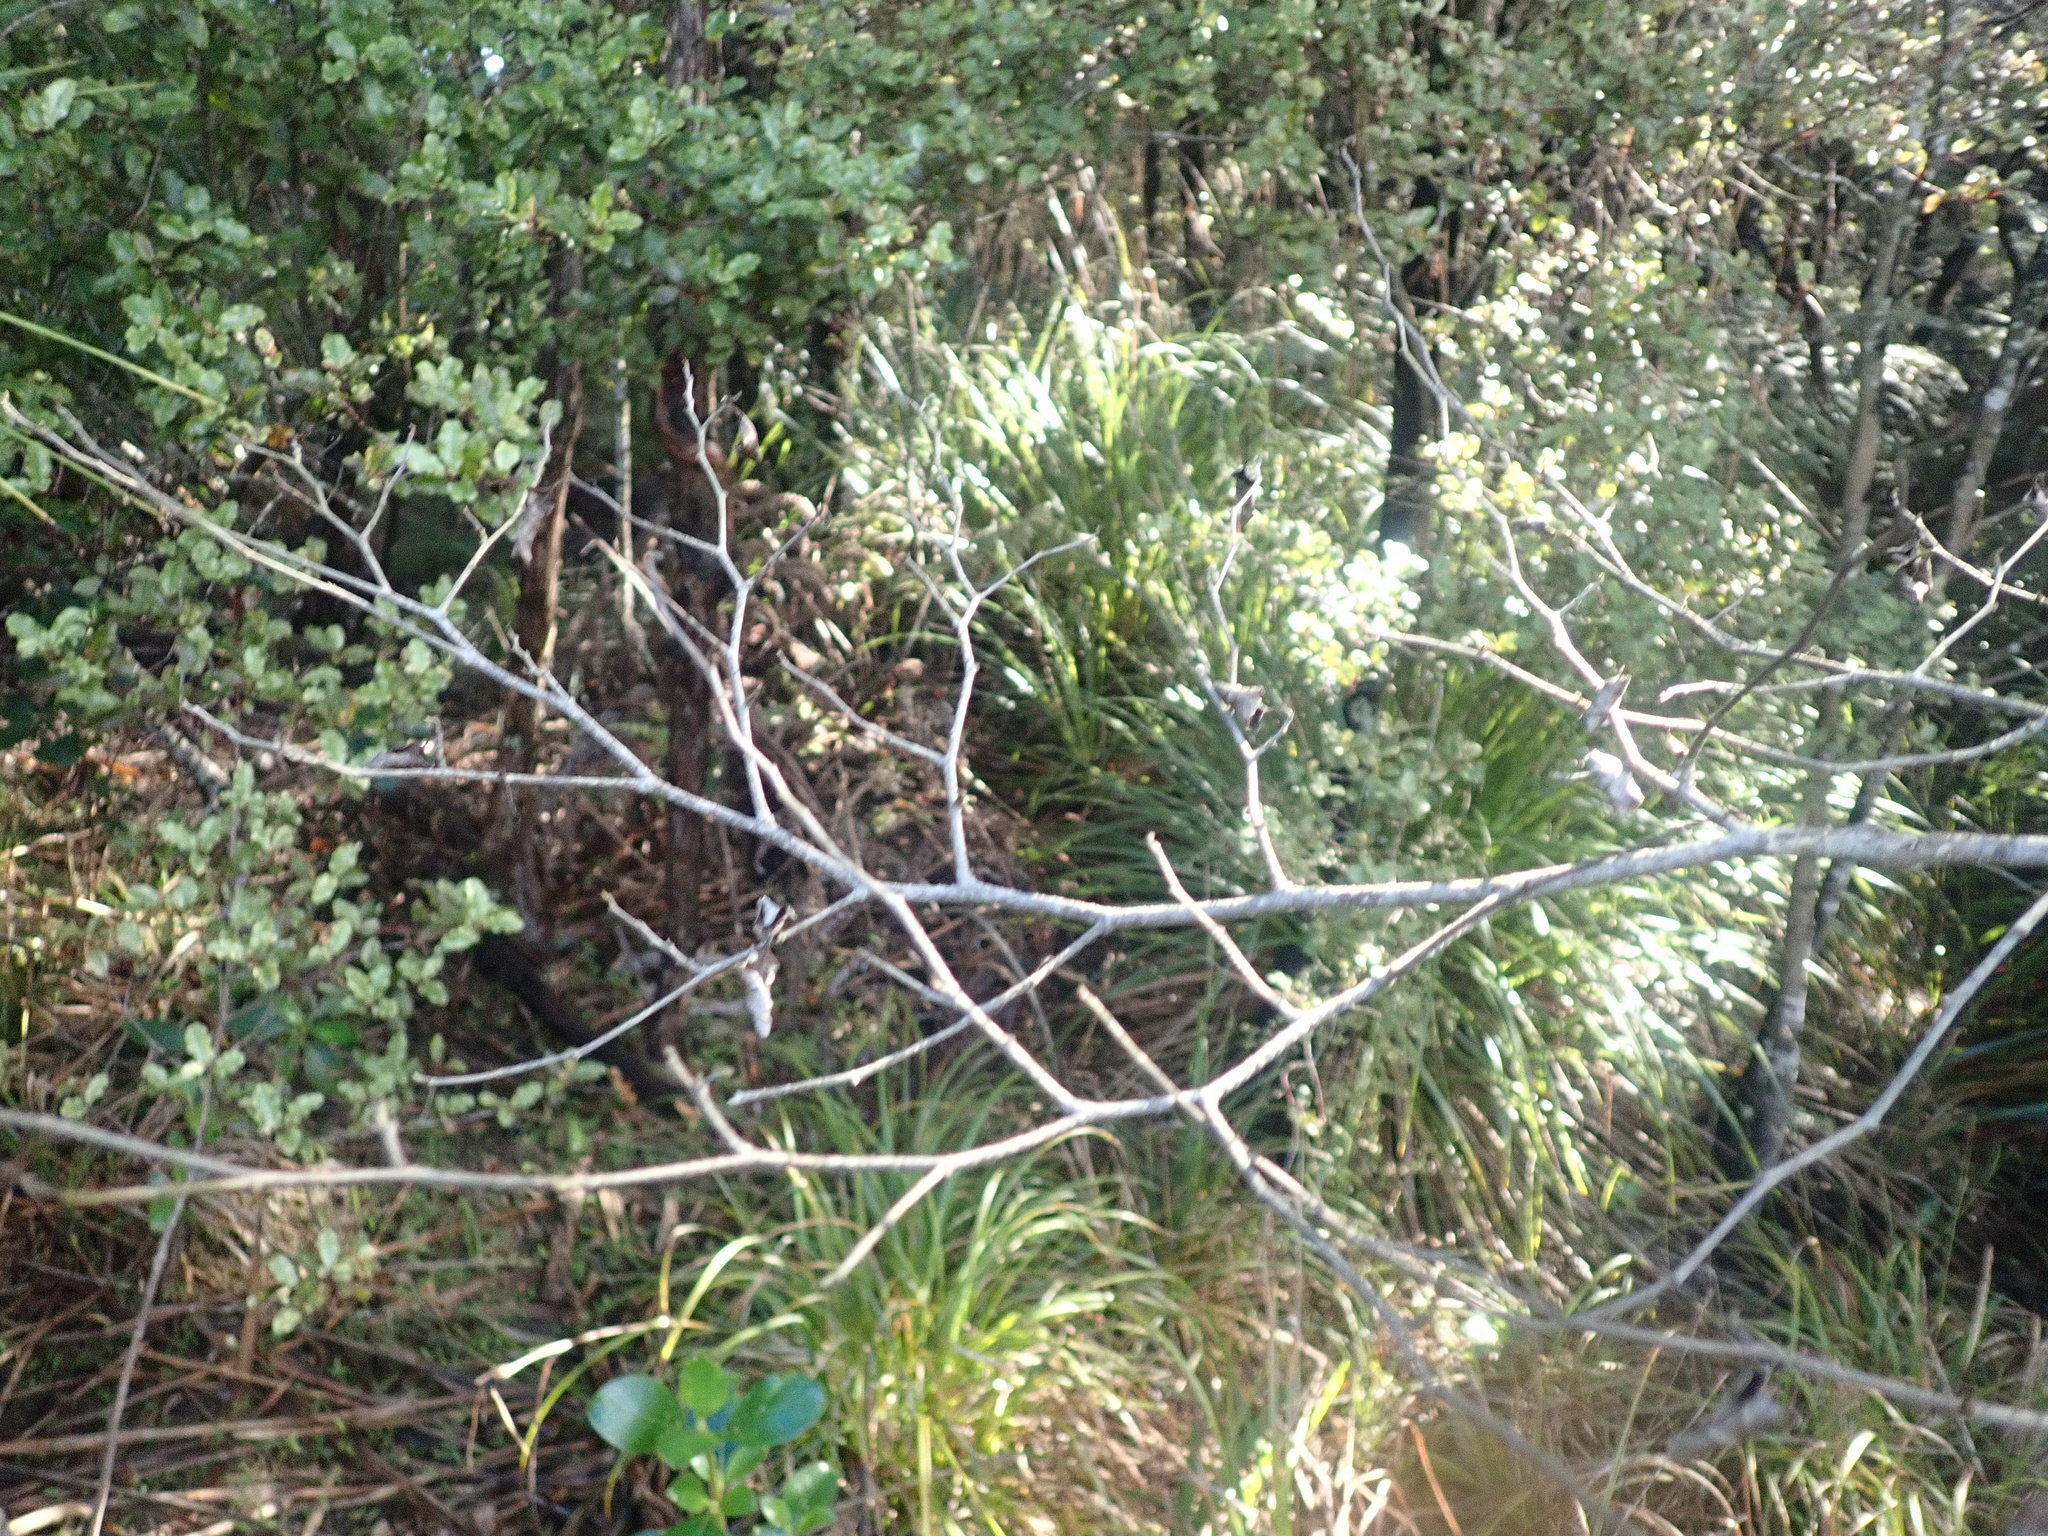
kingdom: Plantae
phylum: Tracheophyta
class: Magnoliopsida
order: Asterales
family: Rousseaceae
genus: Carpodetus
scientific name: Carpodetus serratus
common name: White mapau
